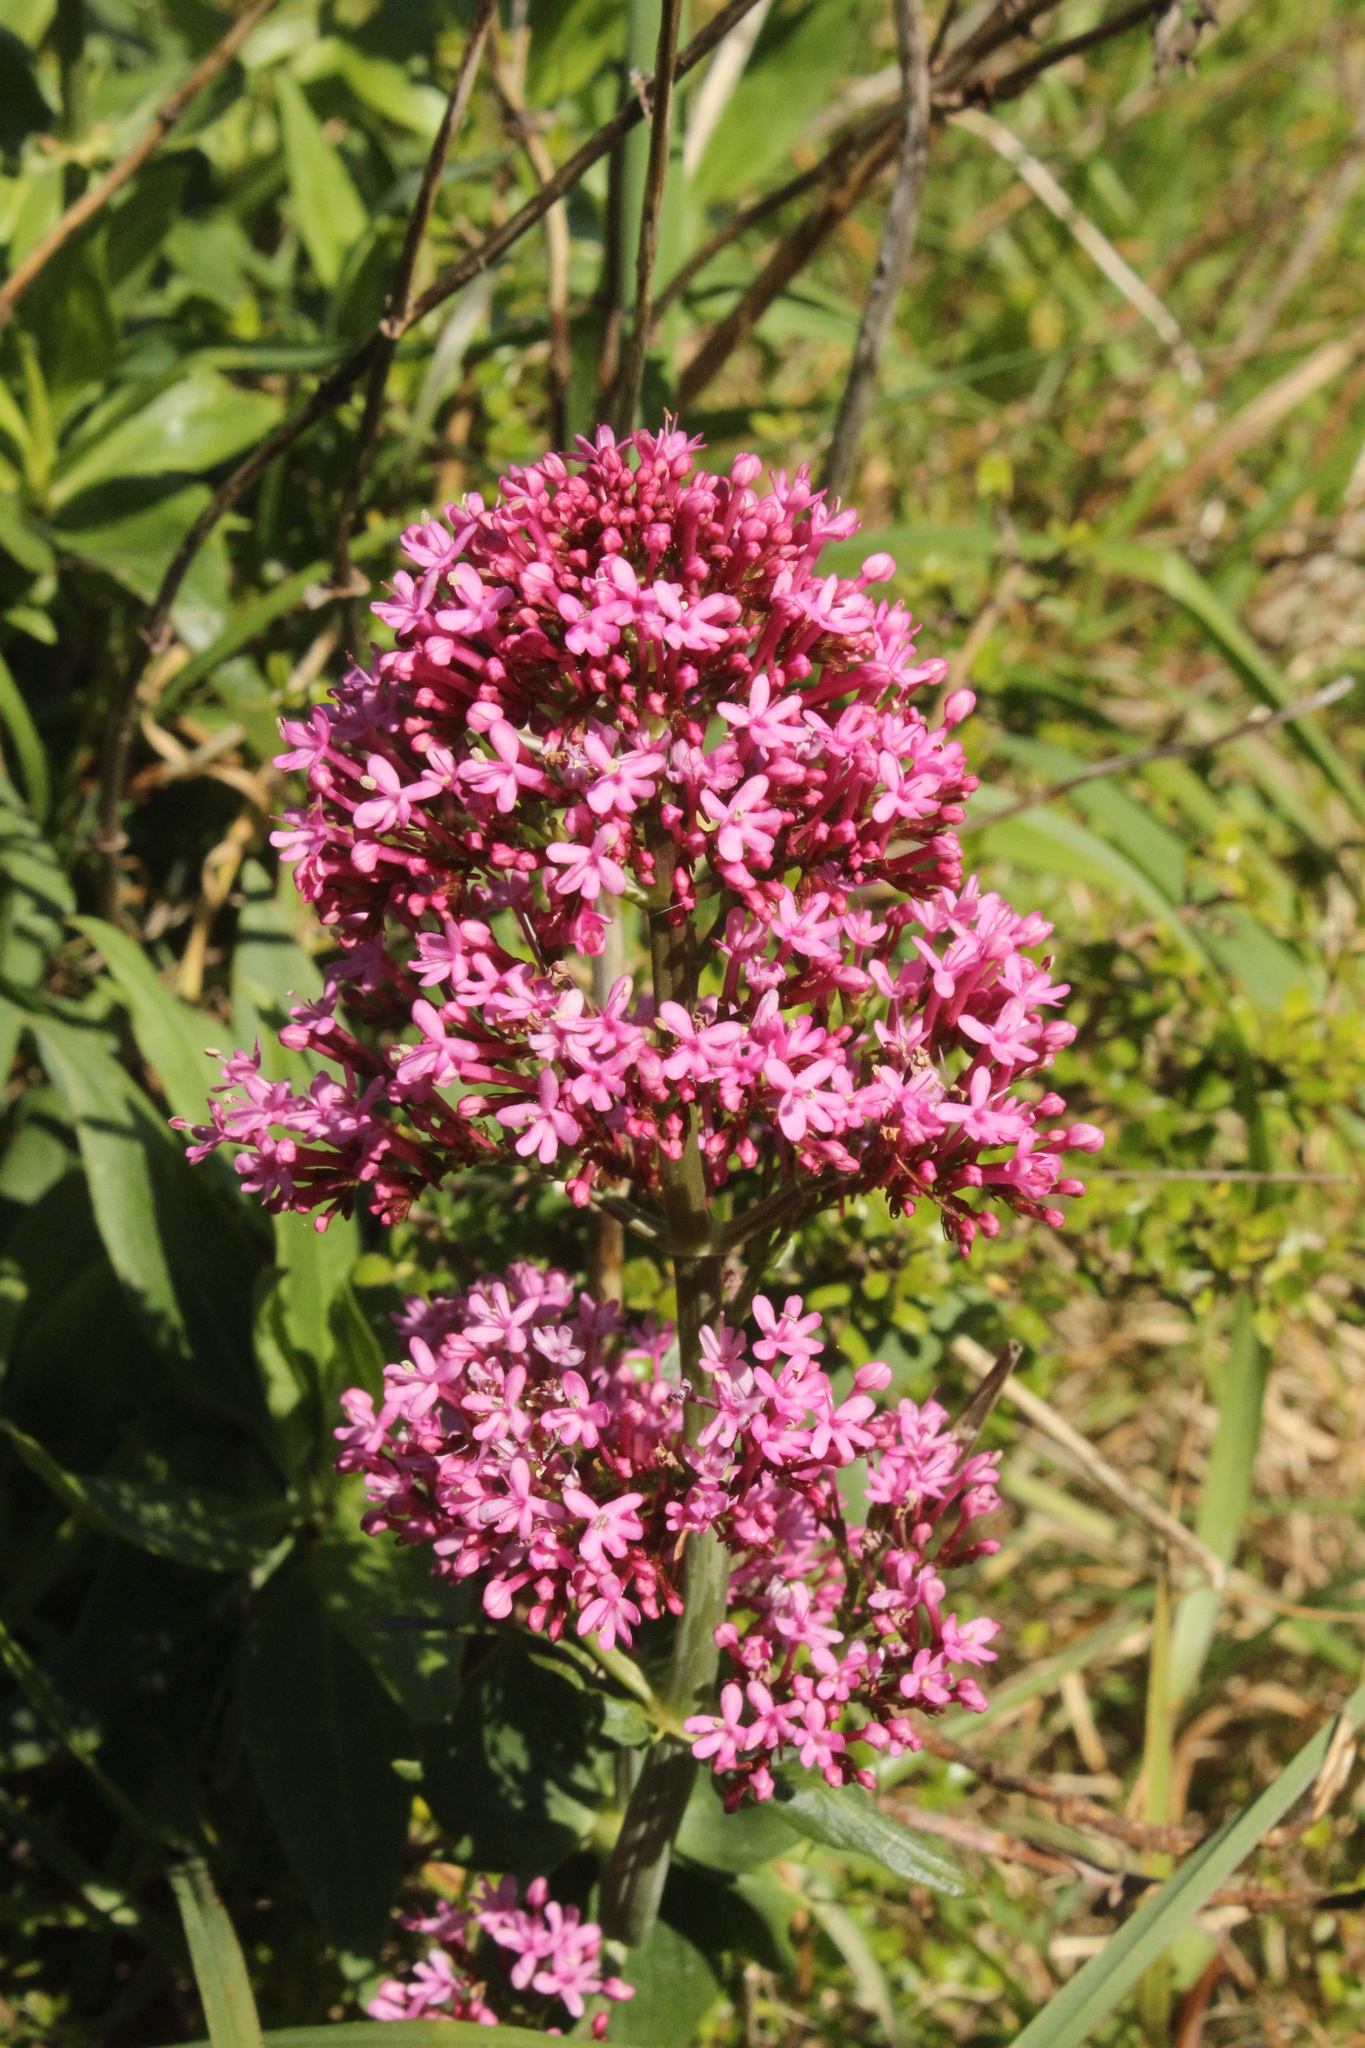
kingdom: Plantae
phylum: Tracheophyta
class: Magnoliopsida
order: Dipsacales
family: Caprifoliaceae
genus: Centranthus
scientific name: Centranthus ruber
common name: Red valerian
